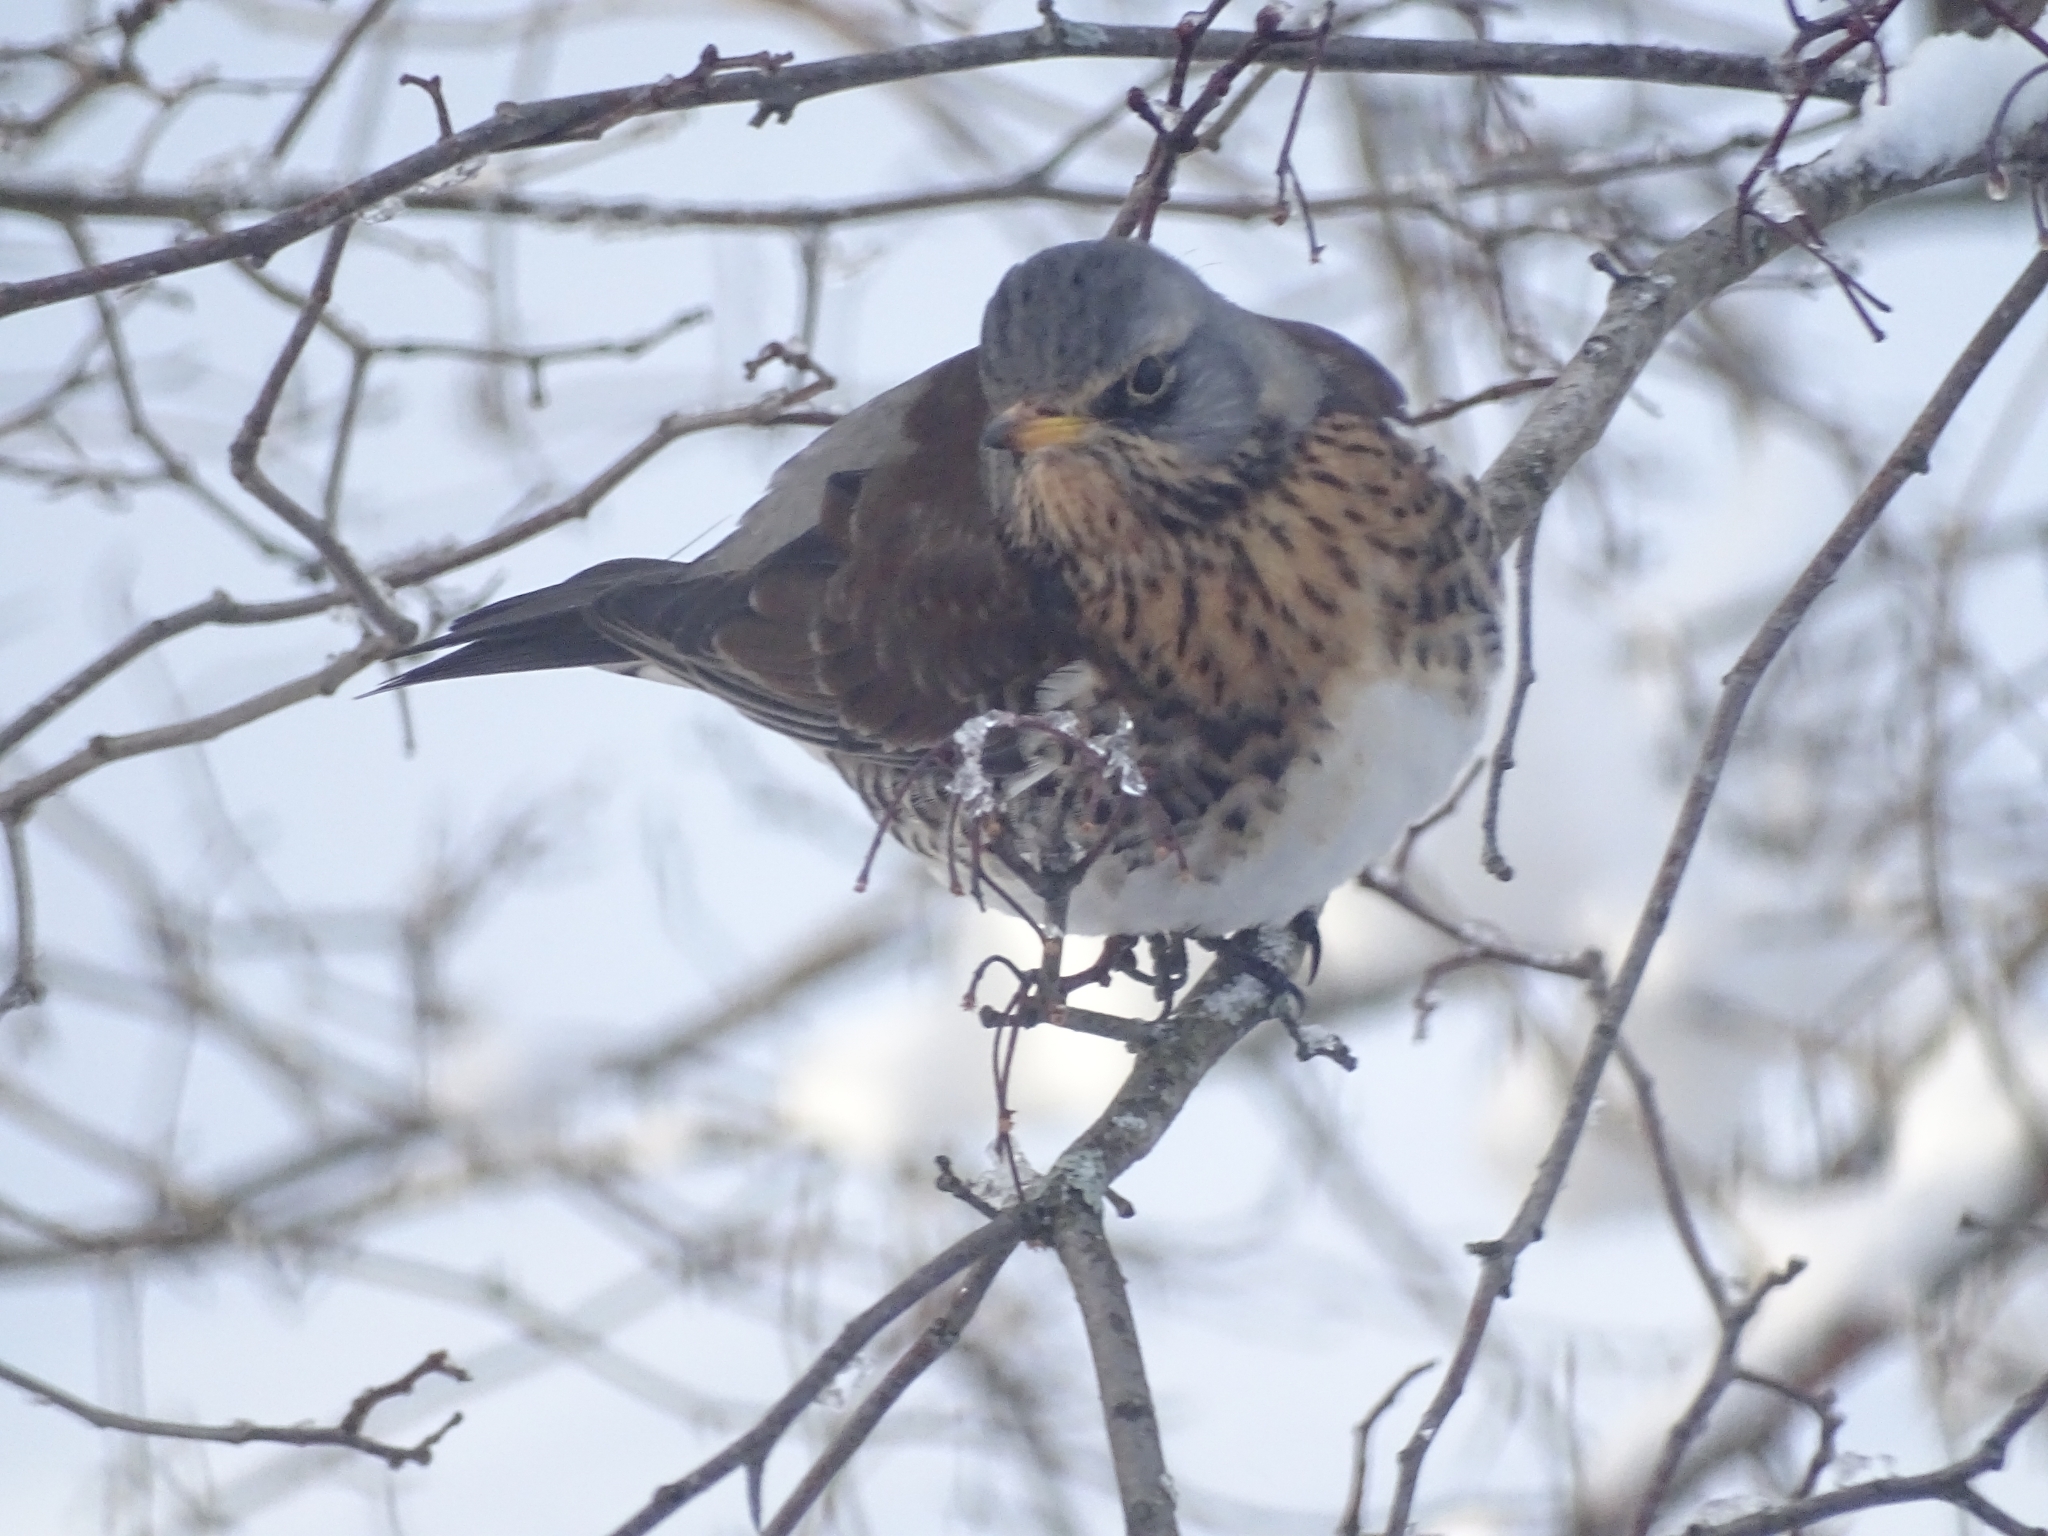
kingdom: Animalia
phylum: Chordata
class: Aves
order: Passeriformes
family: Turdidae
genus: Turdus
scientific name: Turdus pilaris
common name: Fieldfare
